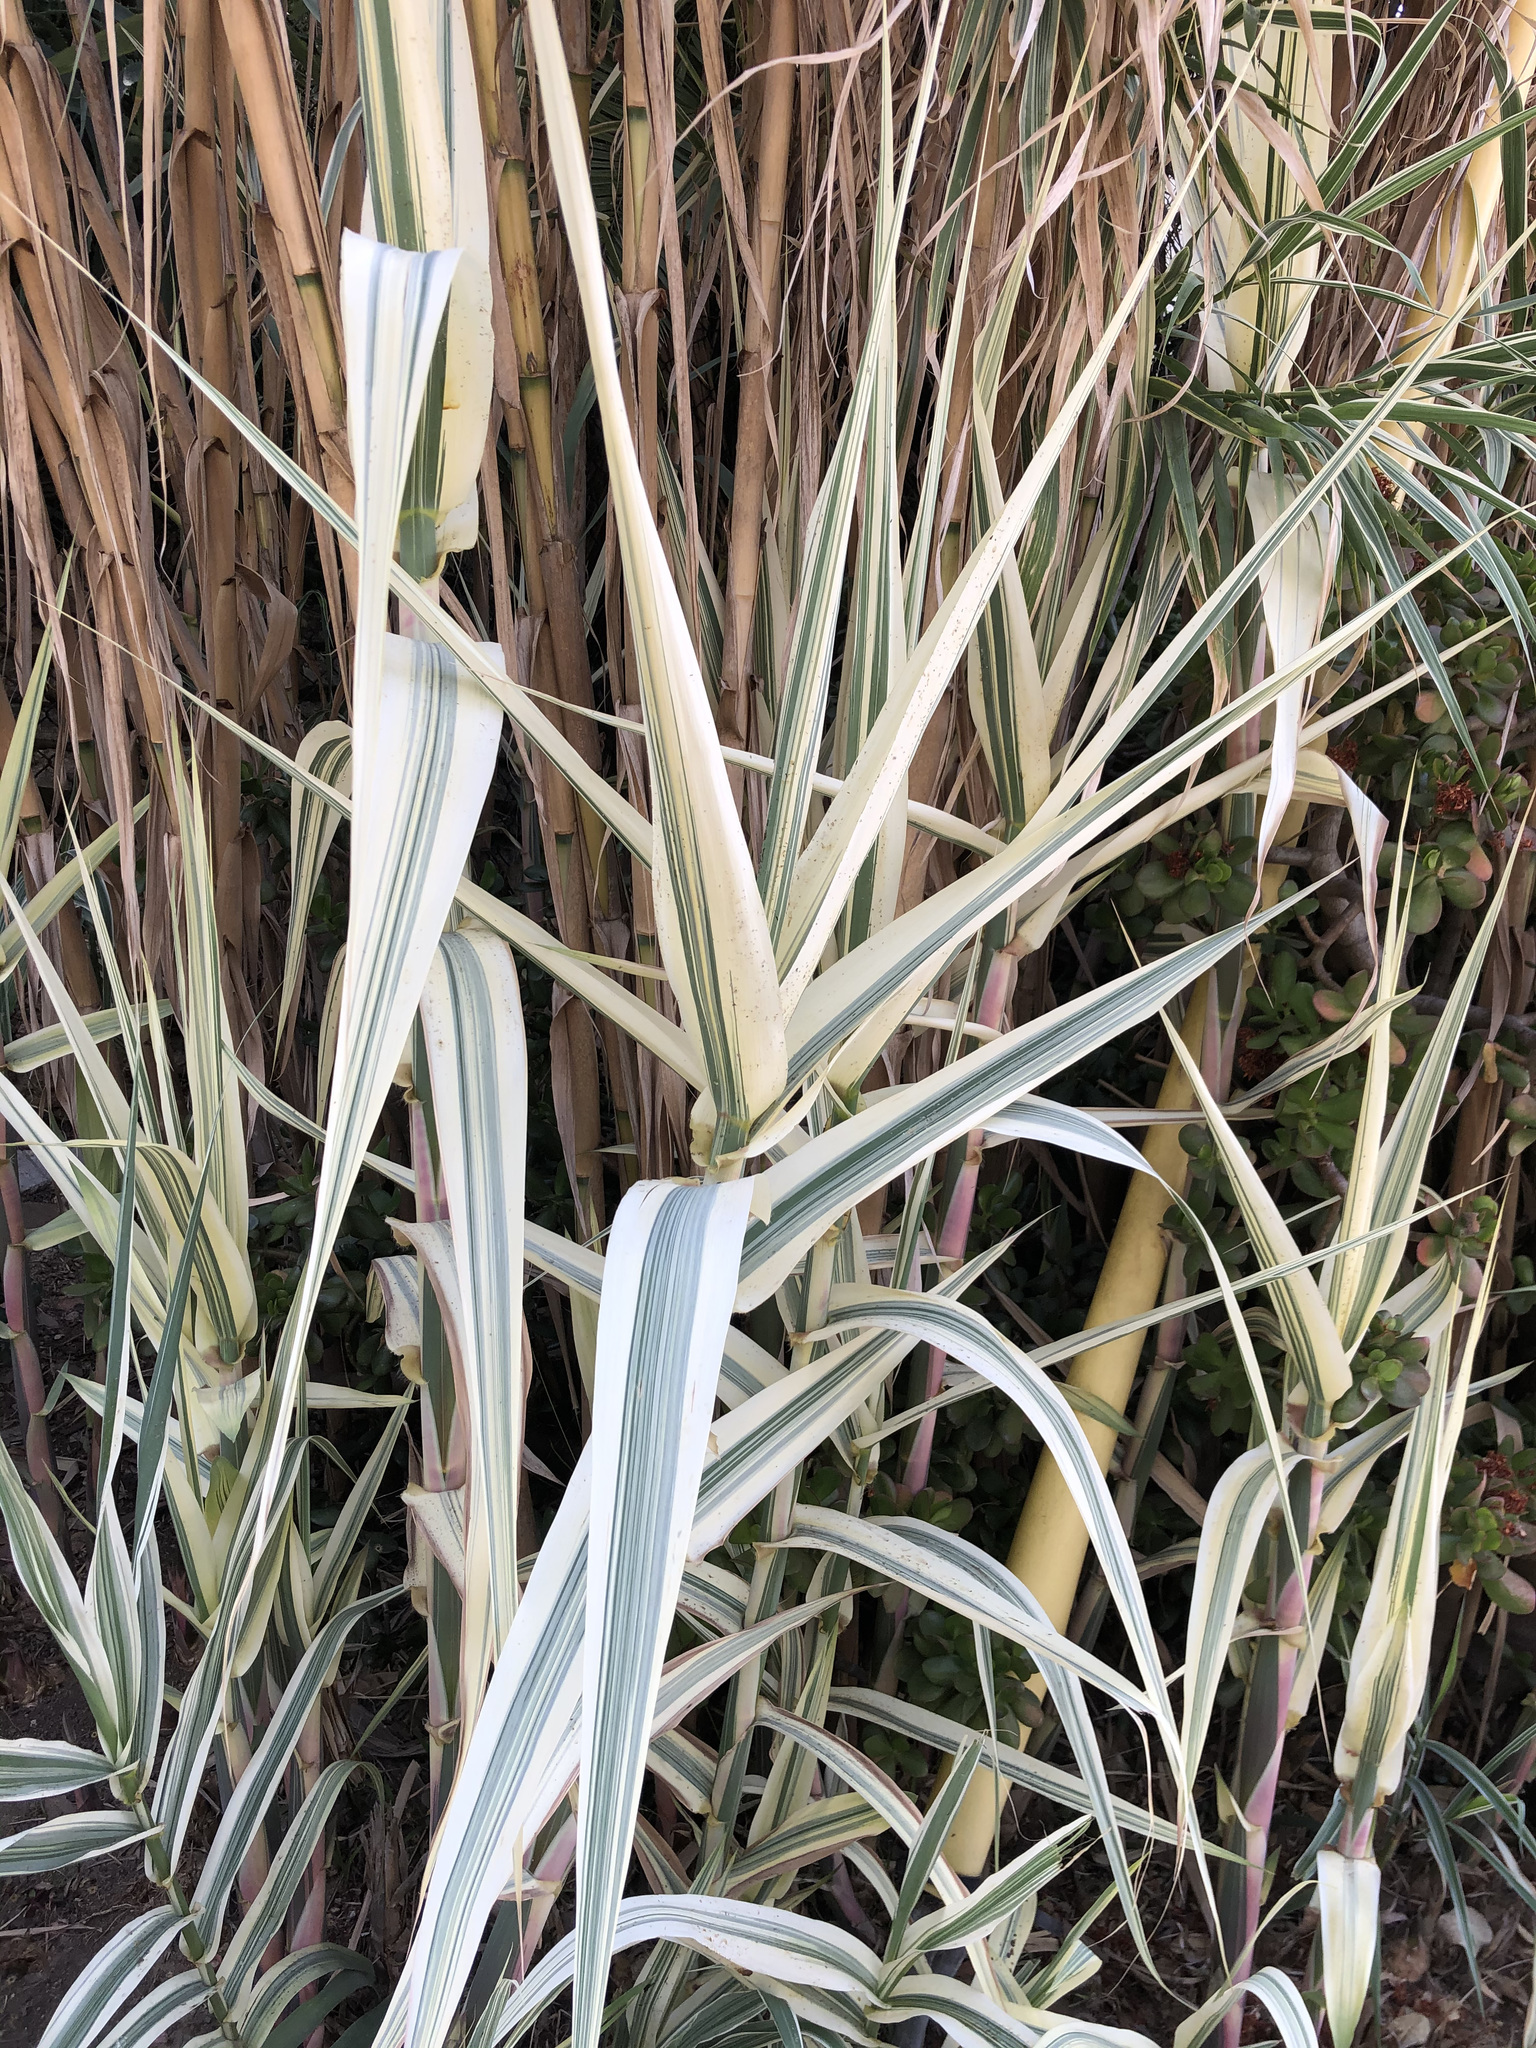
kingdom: Plantae
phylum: Tracheophyta
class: Liliopsida
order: Poales
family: Poaceae
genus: Arundo
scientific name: Arundo donax
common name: Giant reed
